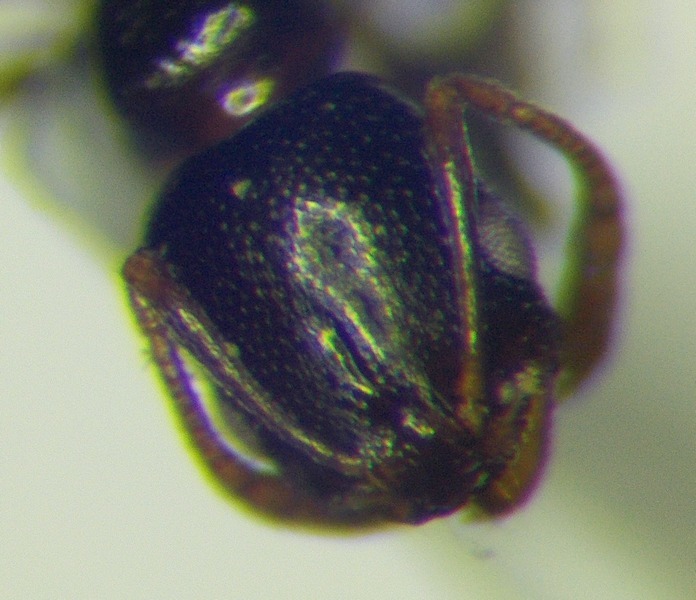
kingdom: Animalia
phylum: Arthropoda
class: Insecta
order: Hymenoptera
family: Formicidae
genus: Cardiocondyla
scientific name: Cardiocondyla sahlbergi
